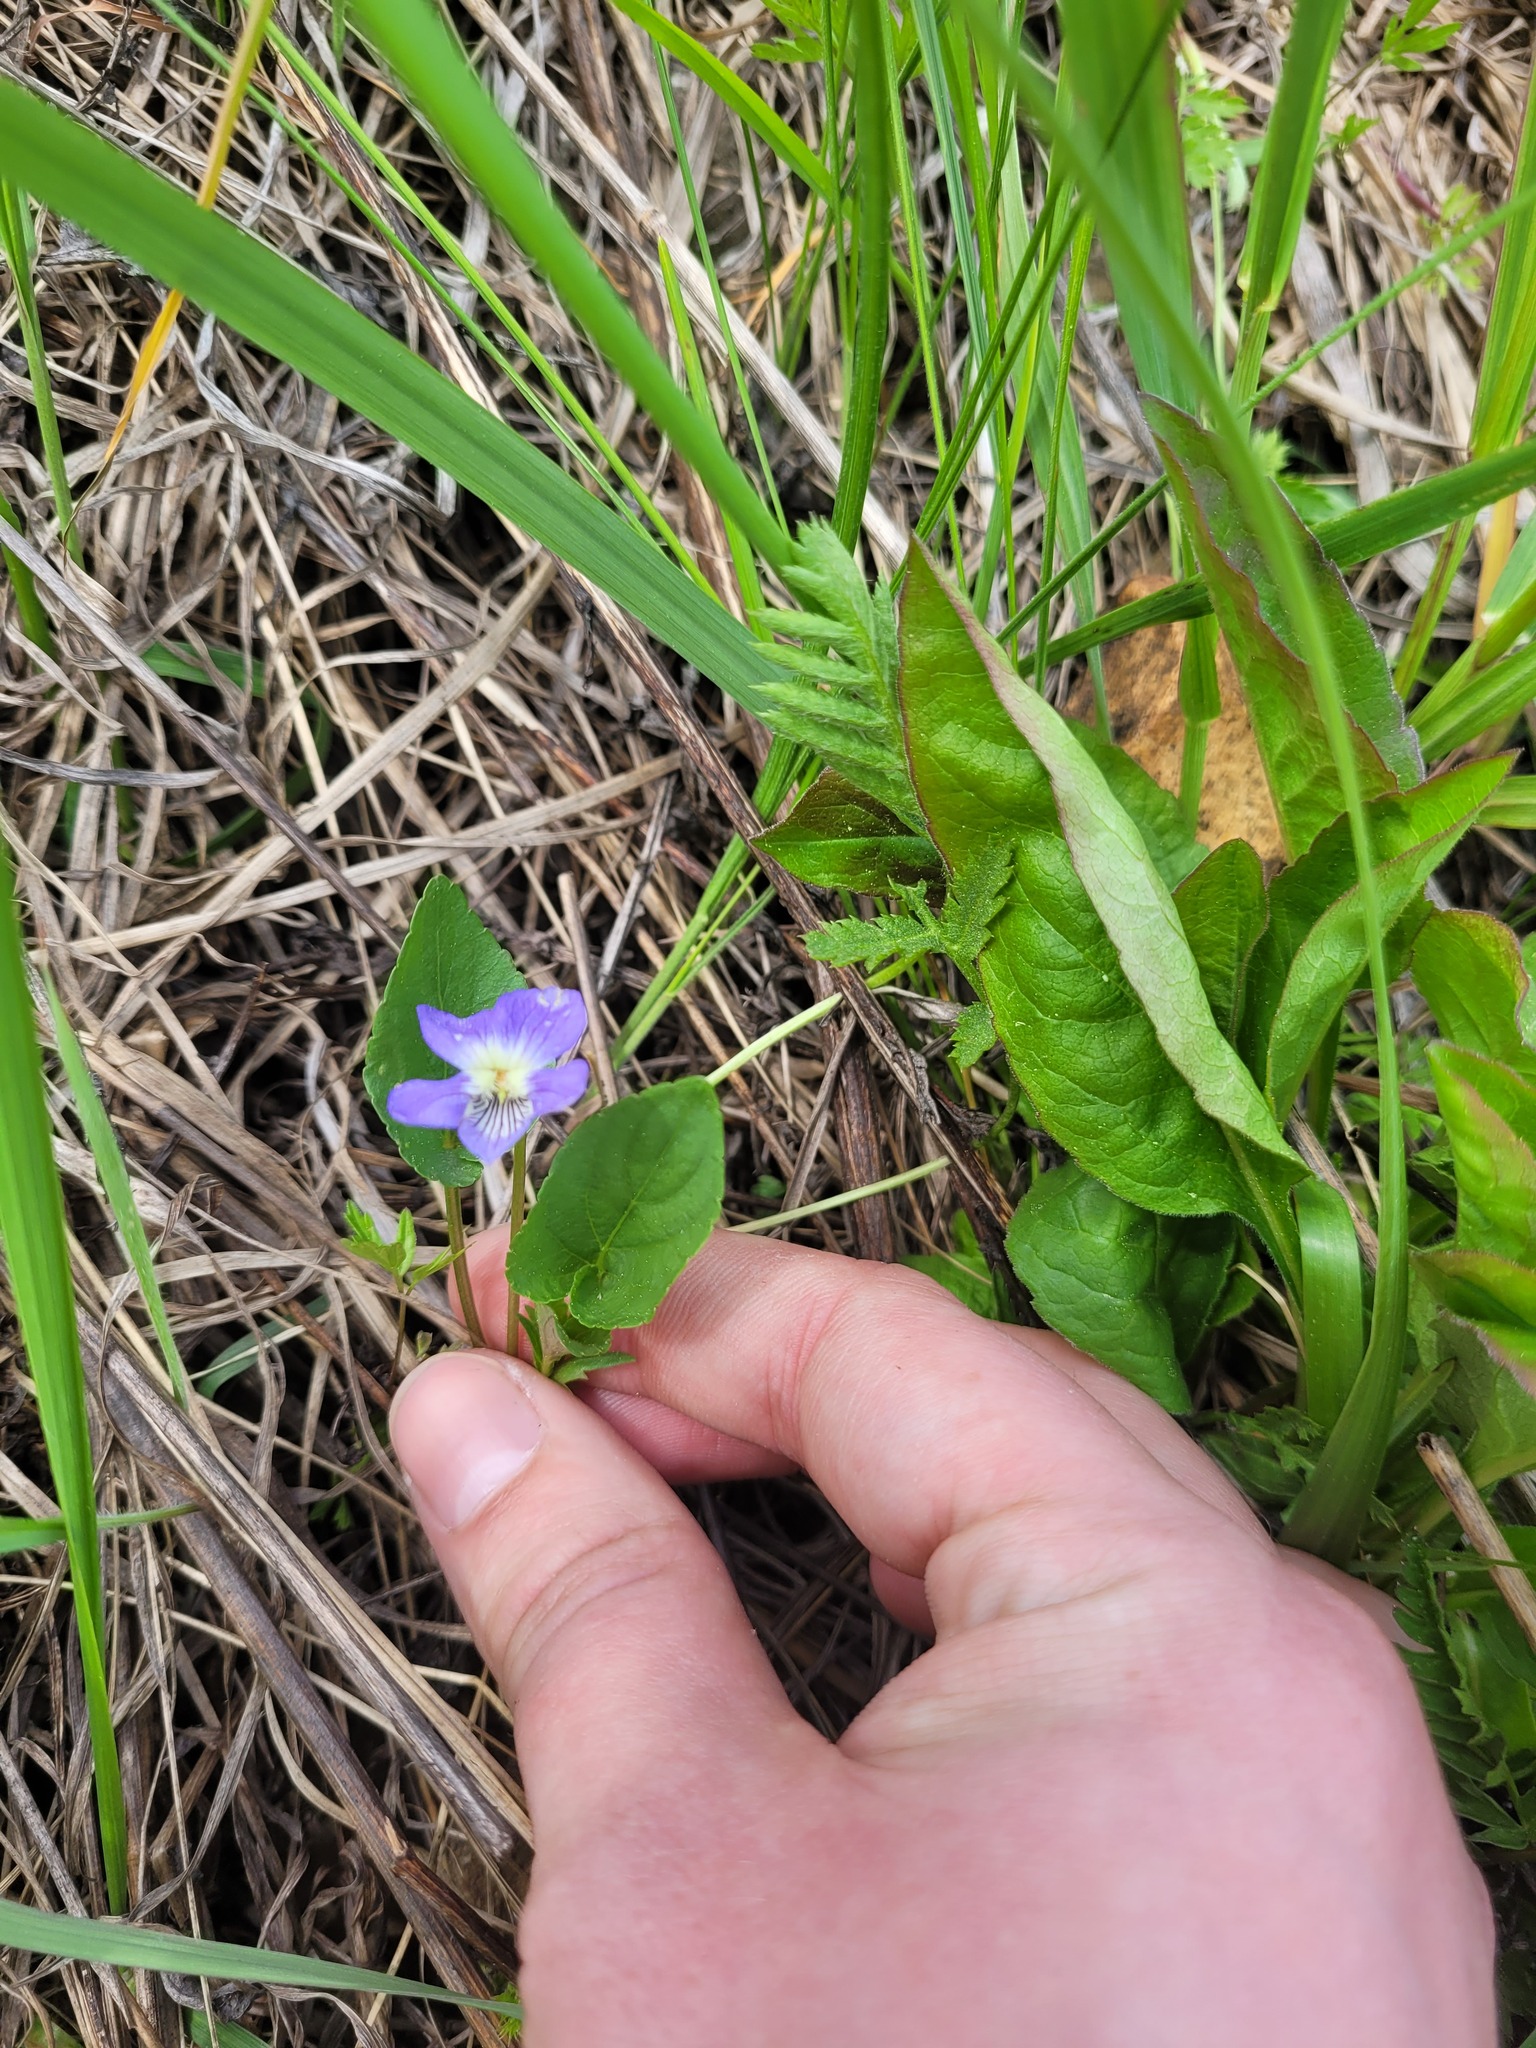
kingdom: Plantae
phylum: Tracheophyta
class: Magnoliopsida
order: Malpighiales
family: Violaceae
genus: Viola
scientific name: Viola
